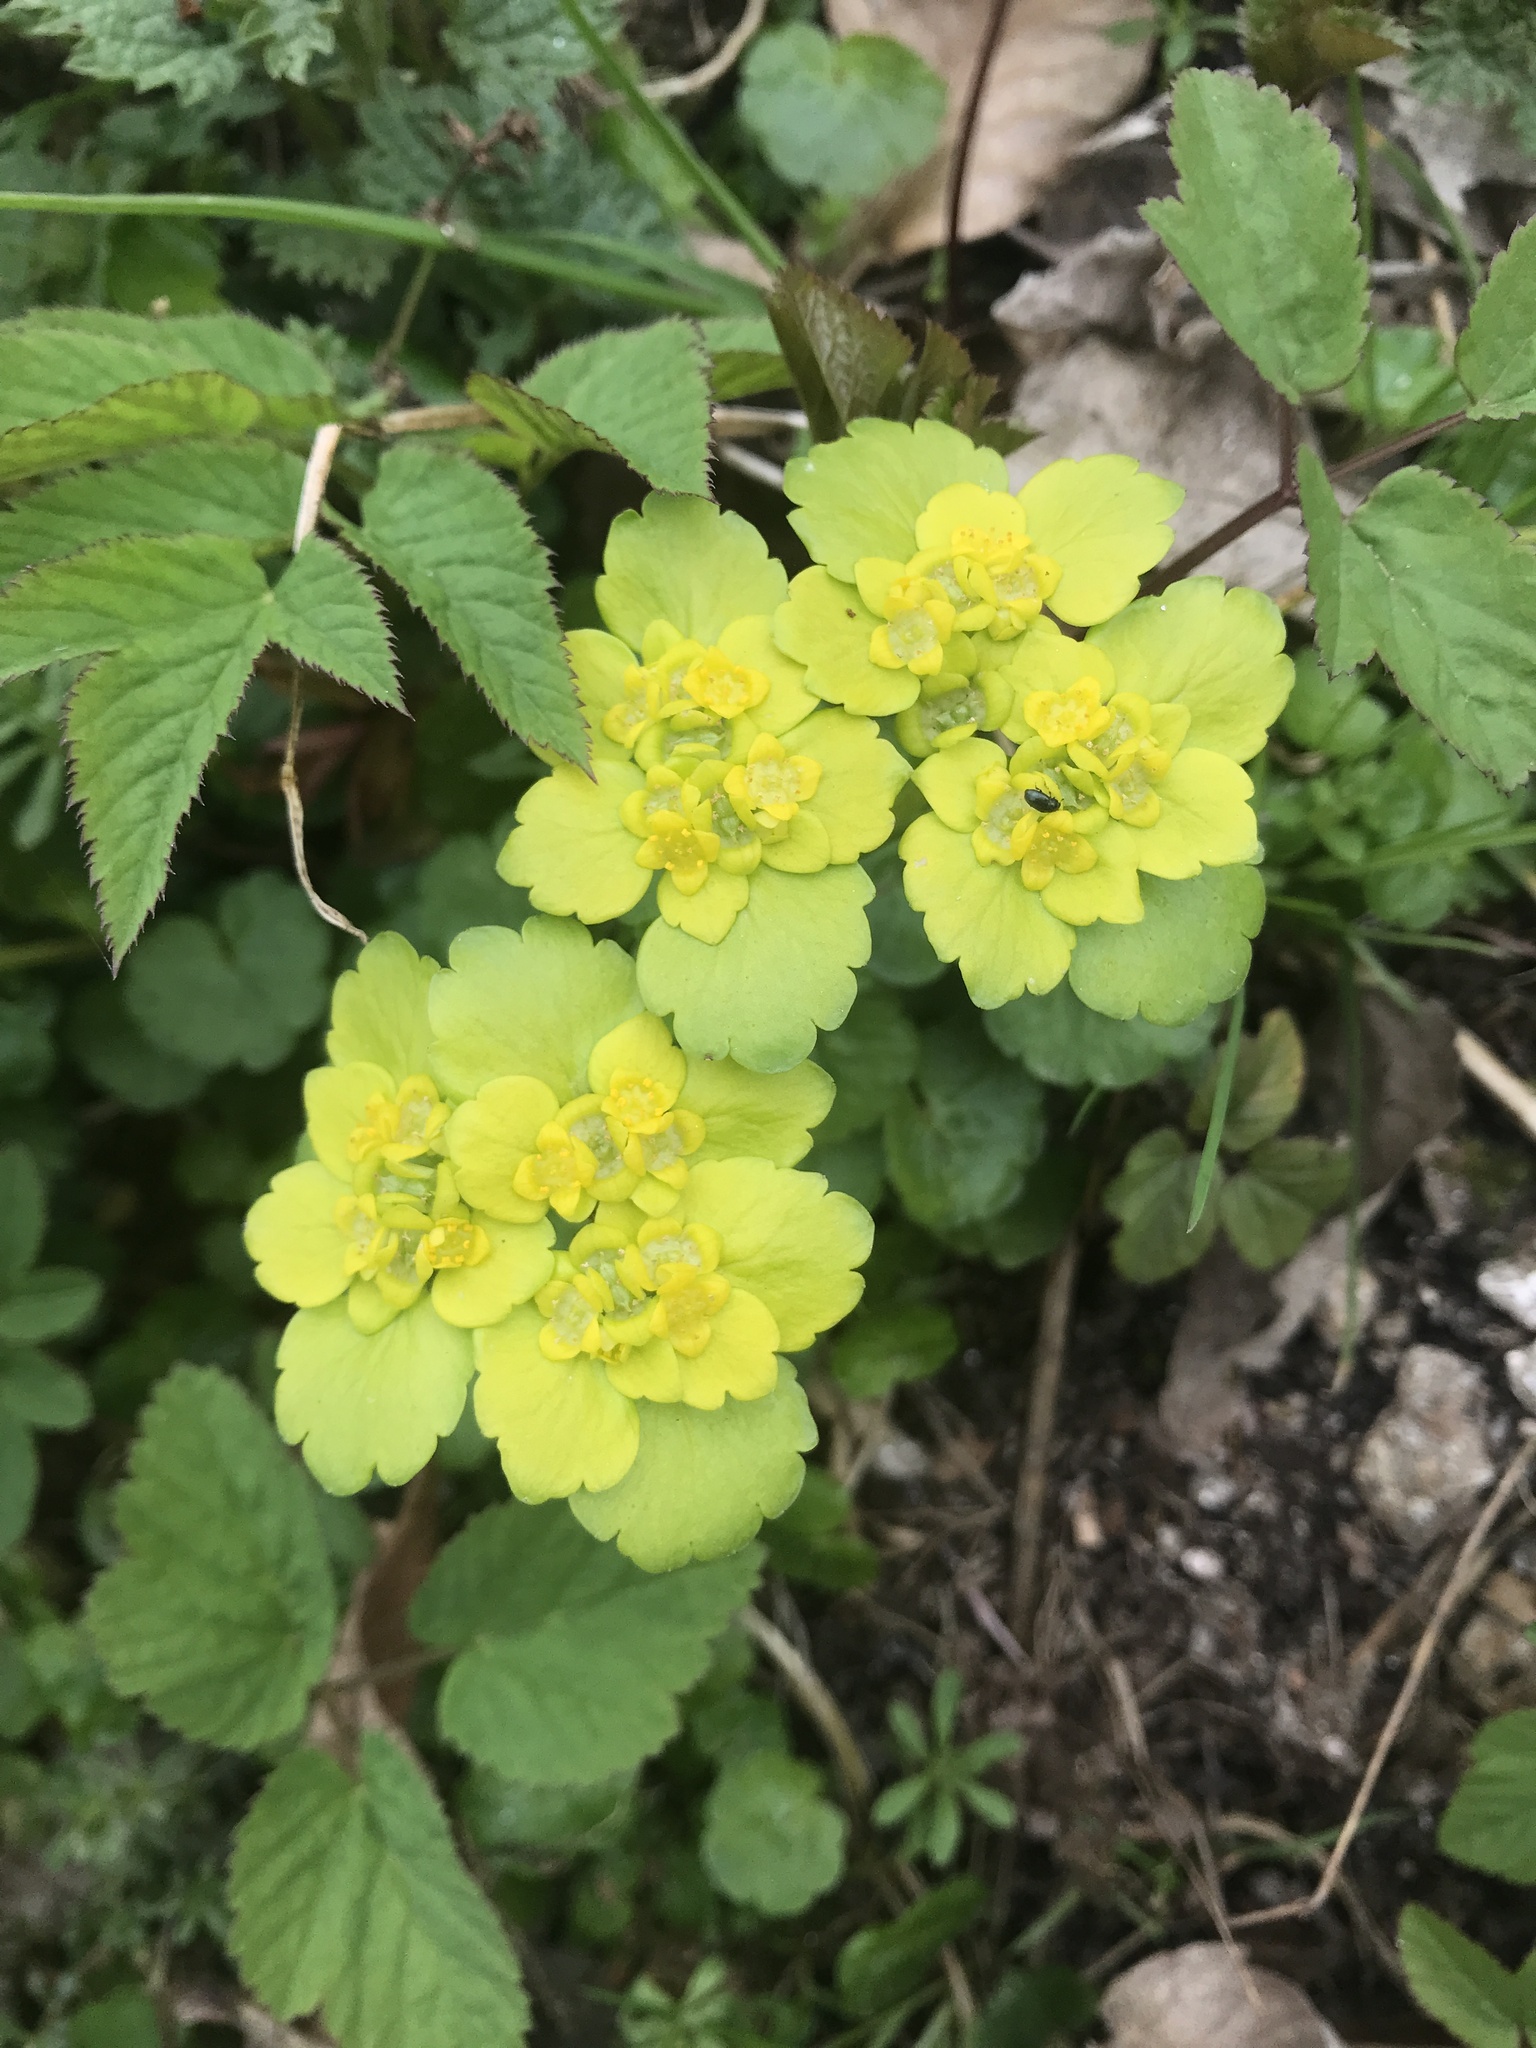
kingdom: Plantae
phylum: Tracheophyta
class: Magnoliopsida
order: Saxifragales
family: Saxifragaceae
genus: Chrysosplenium
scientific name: Chrysosplenium alternifolium
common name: Alternate-leaved golden-saxifrage
